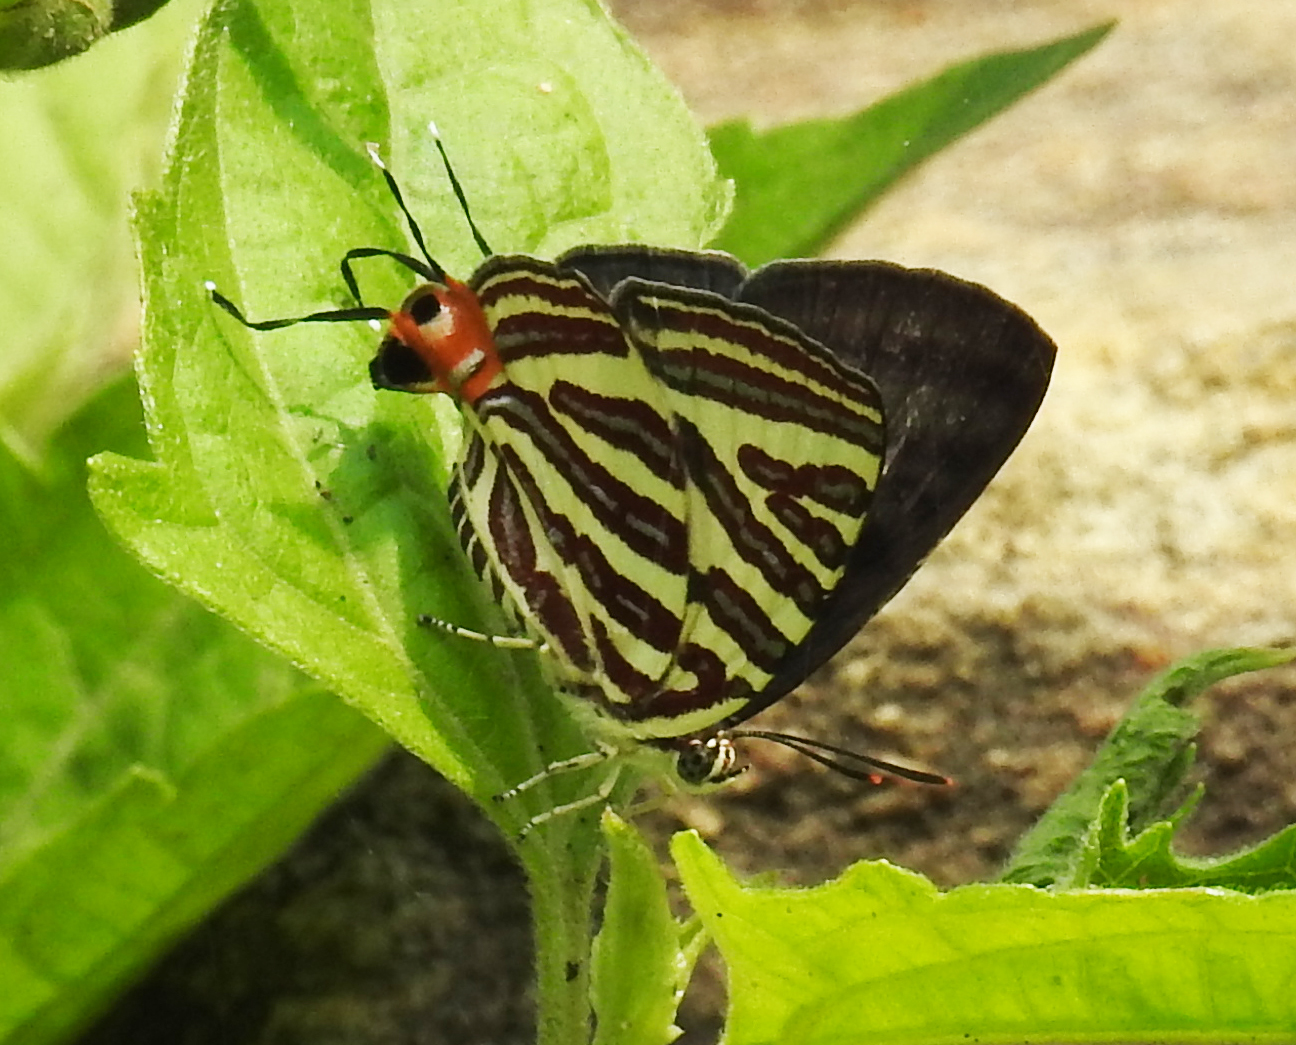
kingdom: Animalia
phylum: Arthropoda
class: Insecta
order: Lepidoptera
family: Lycaenidae
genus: Cigaritis
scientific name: Cigaritis lohita
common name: Long-banded silverline
